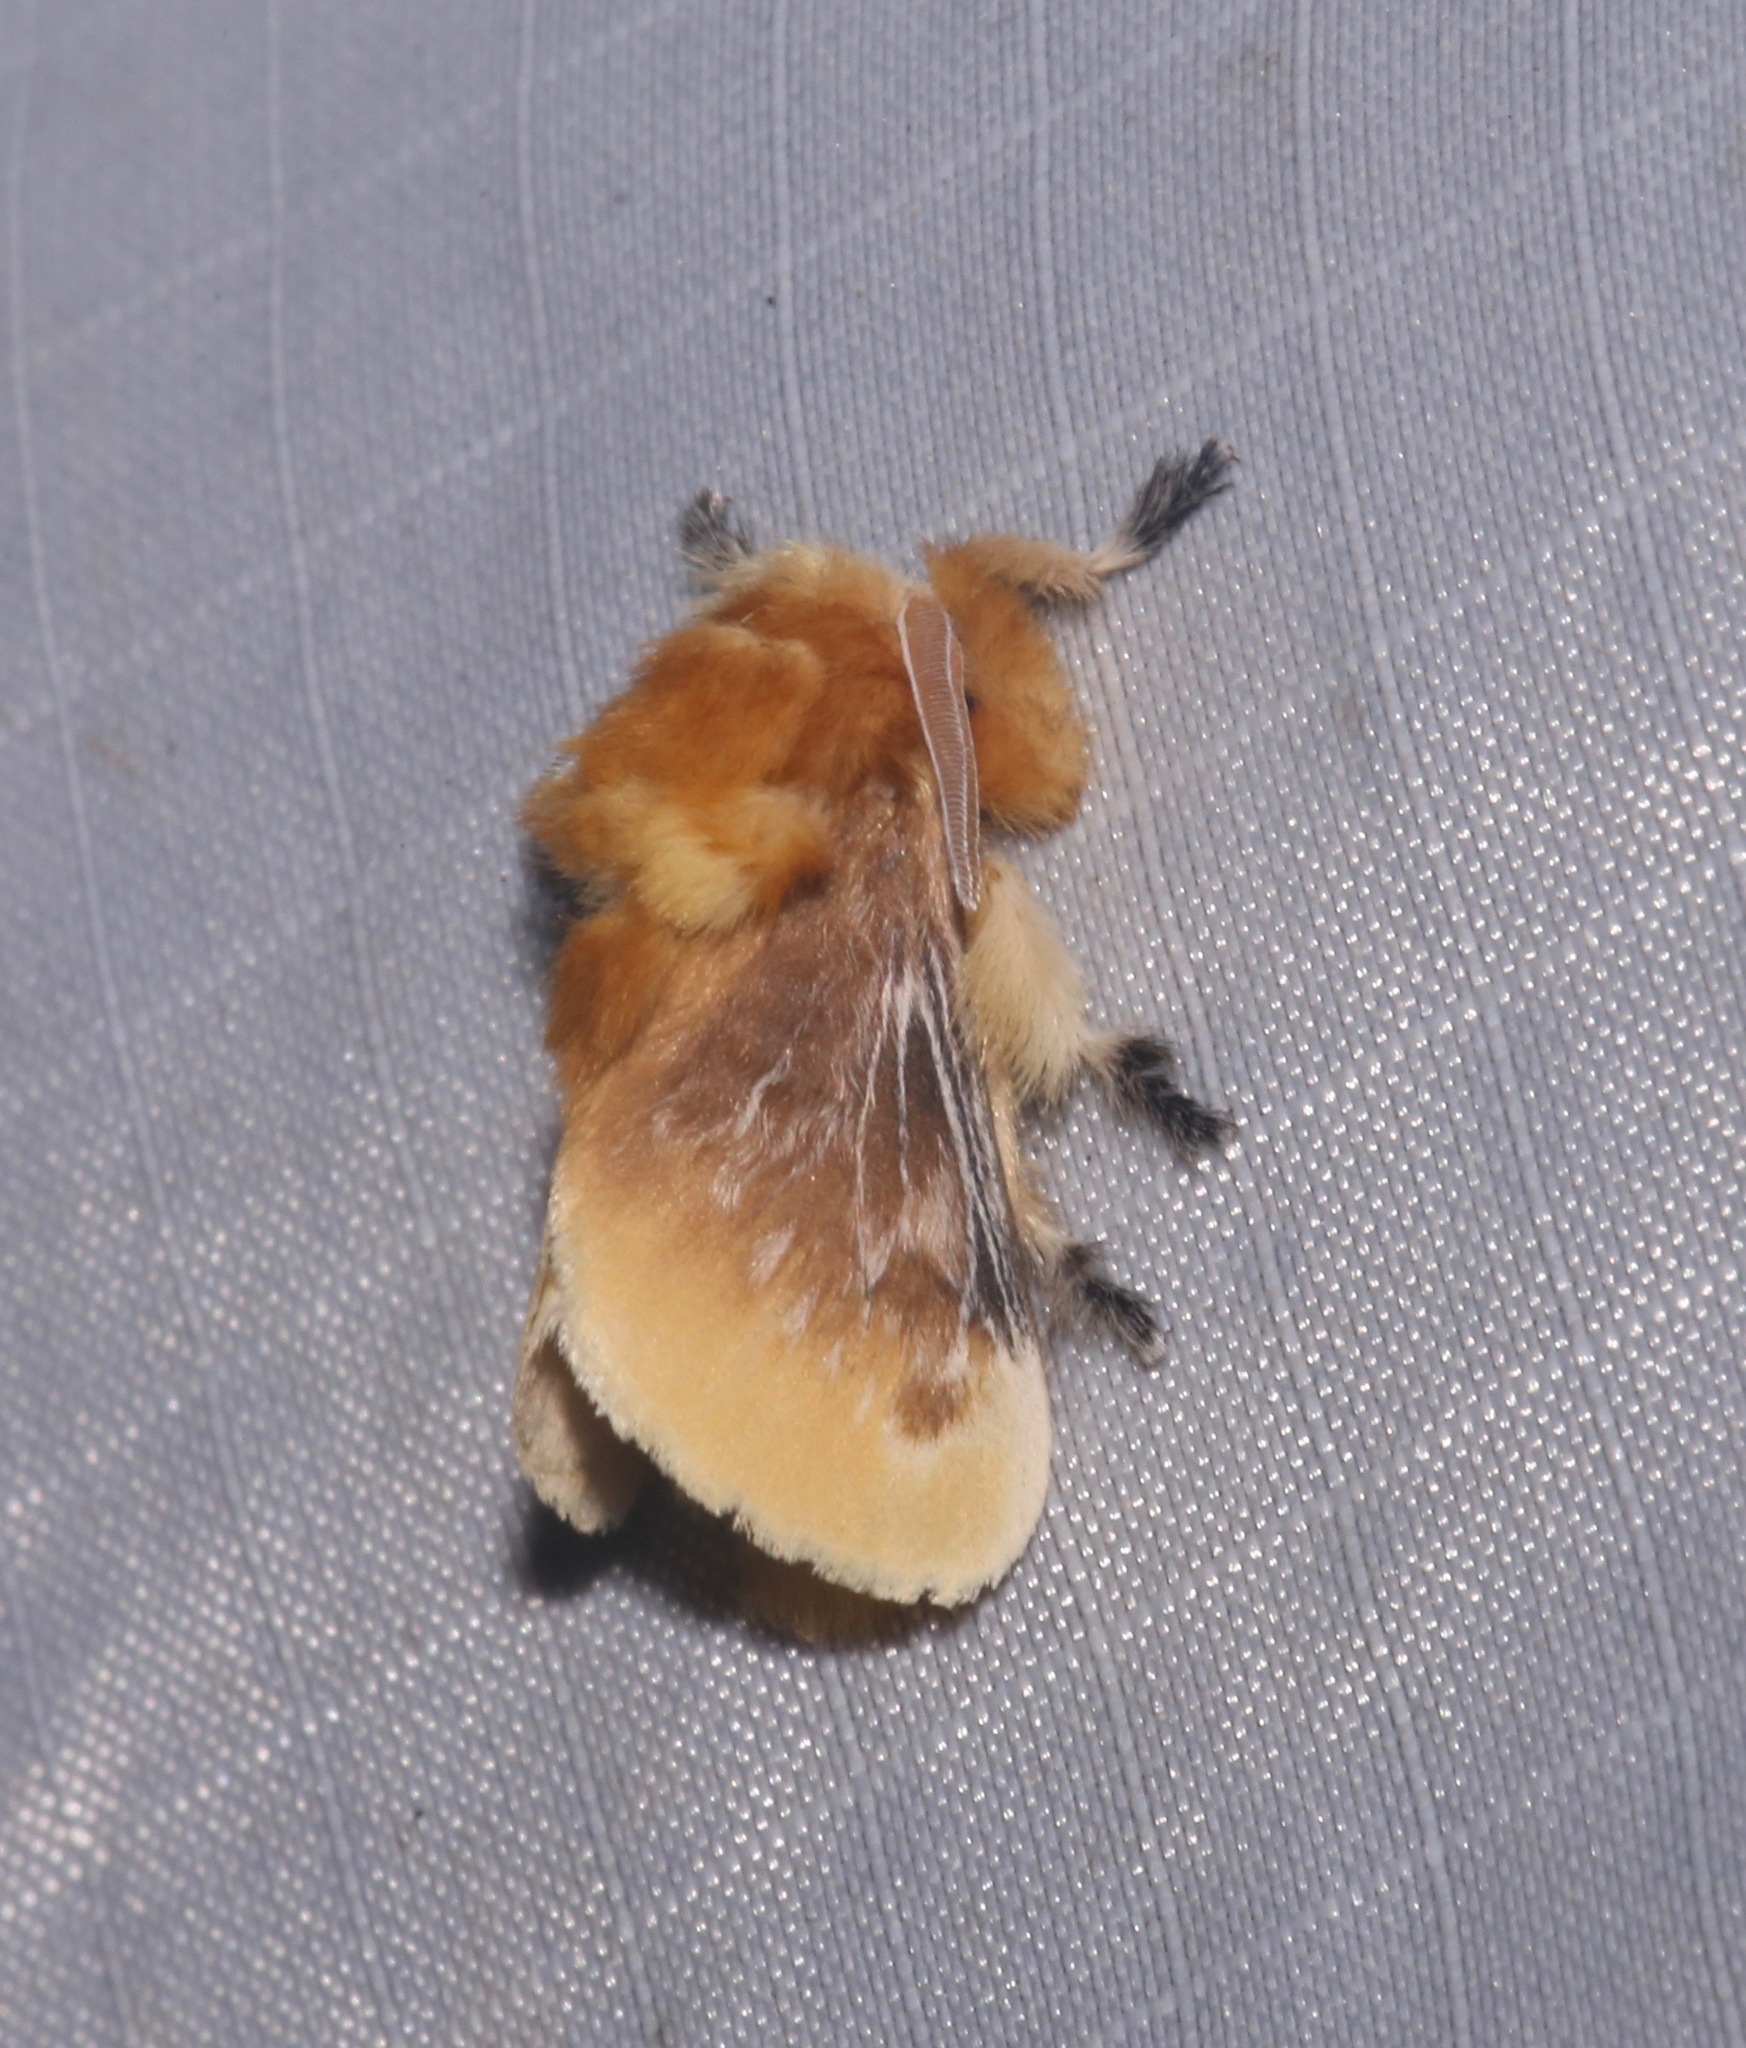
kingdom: Animalia
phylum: Arthropoda
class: Insecta
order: Lepidoptera
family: Megalopygidae
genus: Megalopyge
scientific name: Megalopyge opercularis
